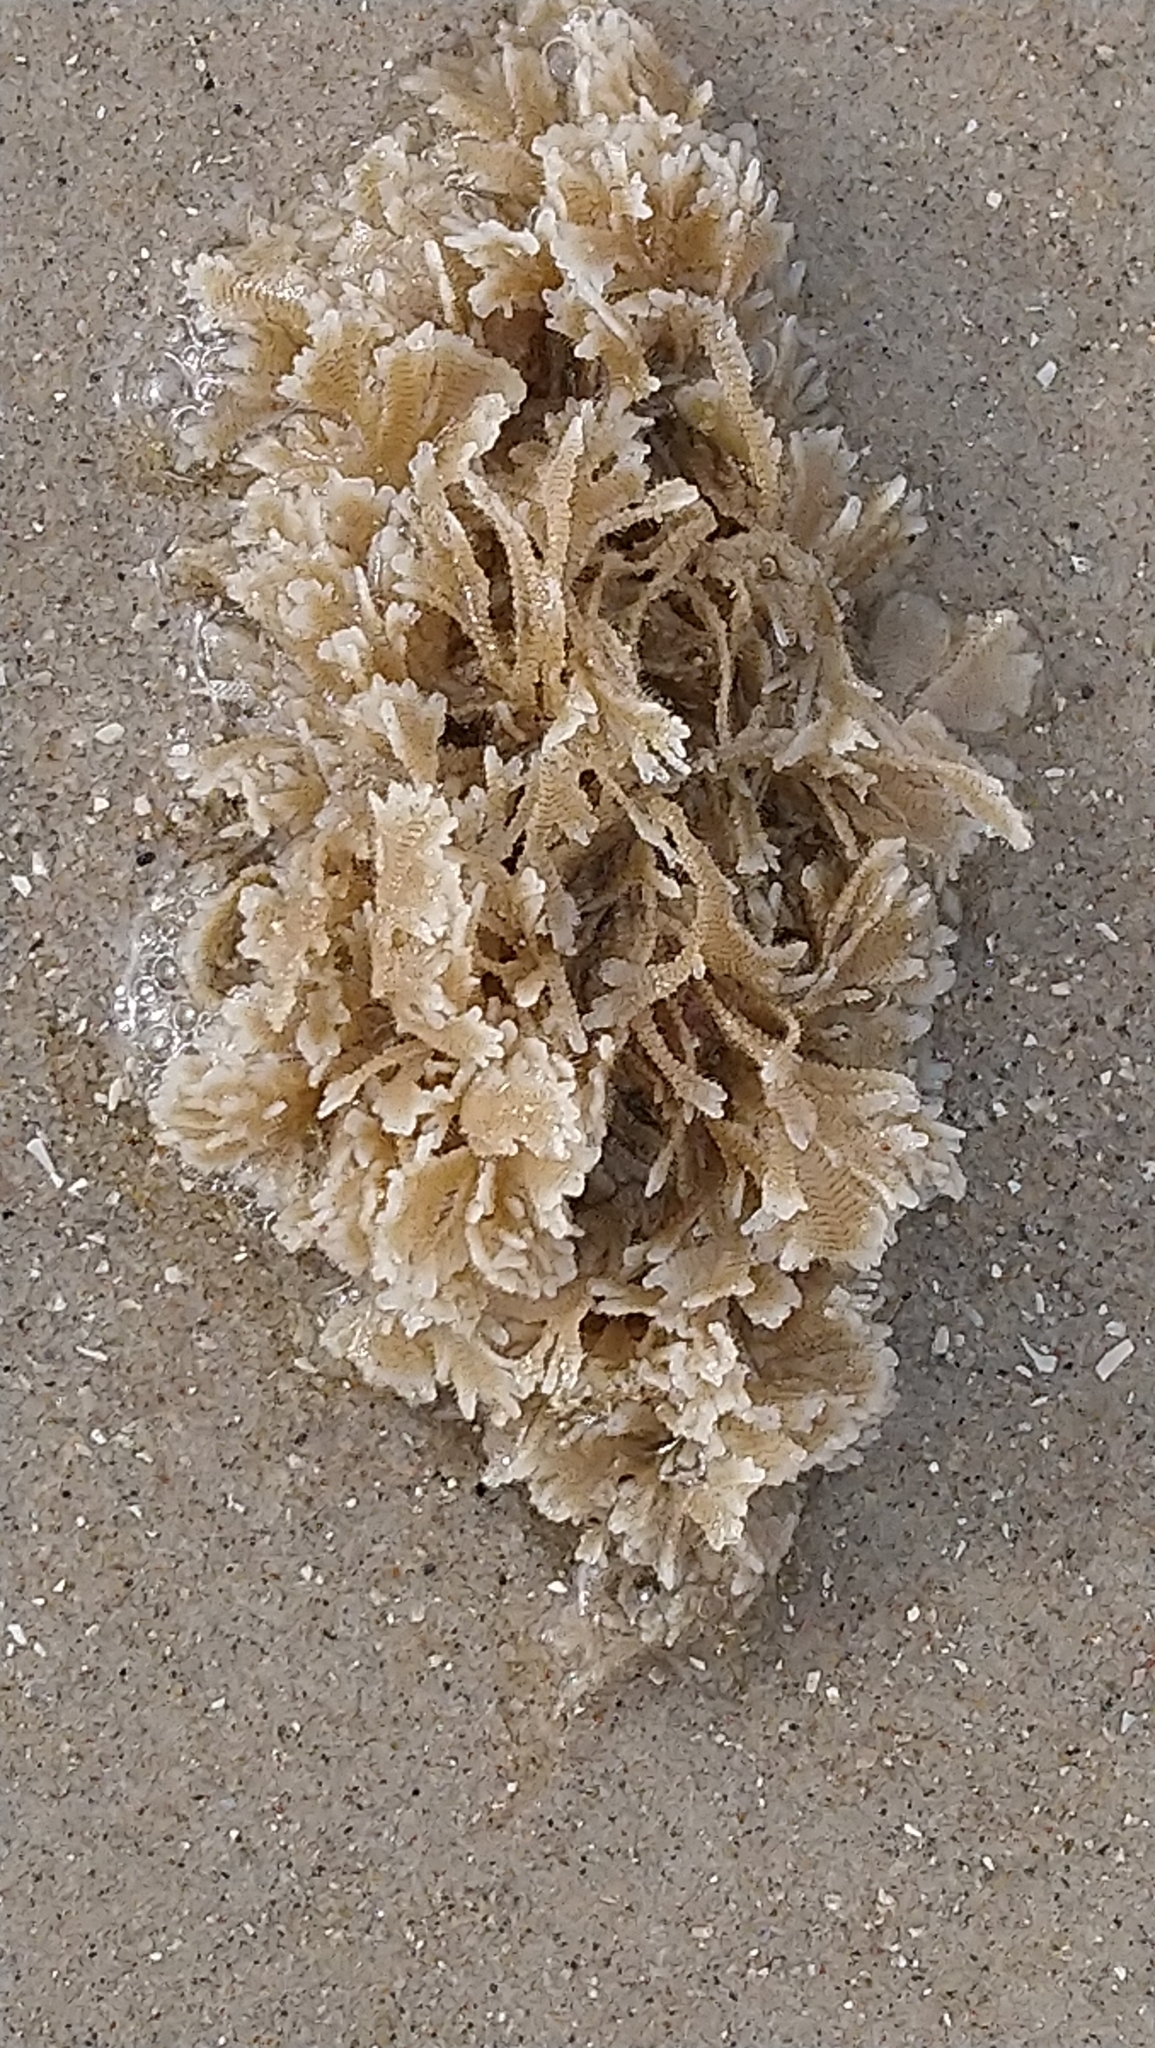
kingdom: Animalia
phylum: Bryozoa
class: Gymnolaemata
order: Cheilostomatida
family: Electridae
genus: Electra
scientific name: Electra pilosa
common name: Hairy sea-mat
